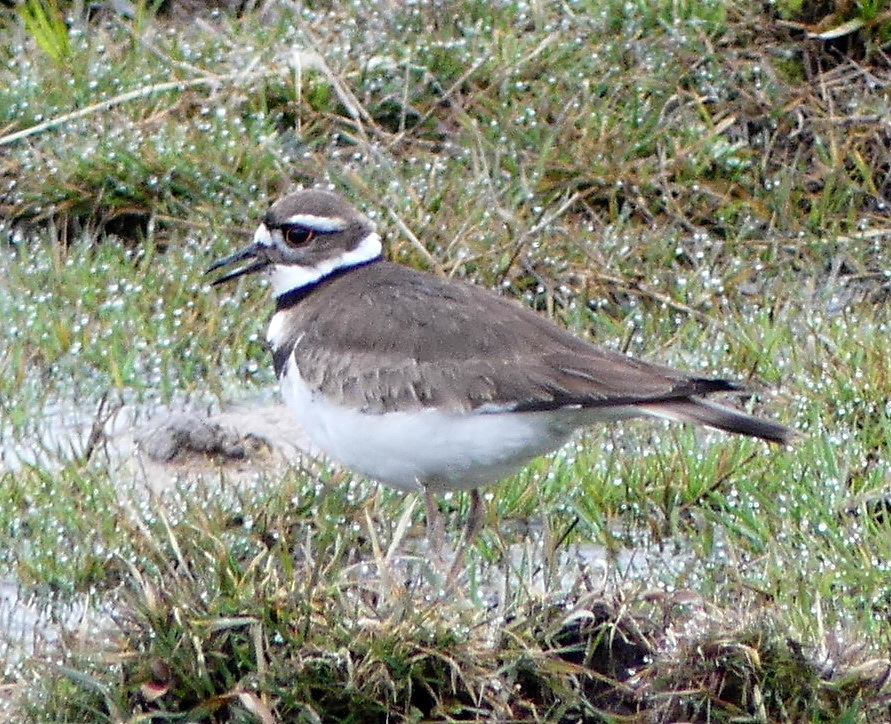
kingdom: Animalia
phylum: Chordata
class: Aves
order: Charadriiformes
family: Charadriidae
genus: Charadrius
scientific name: Charadrius vociferus
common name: Killdeer
